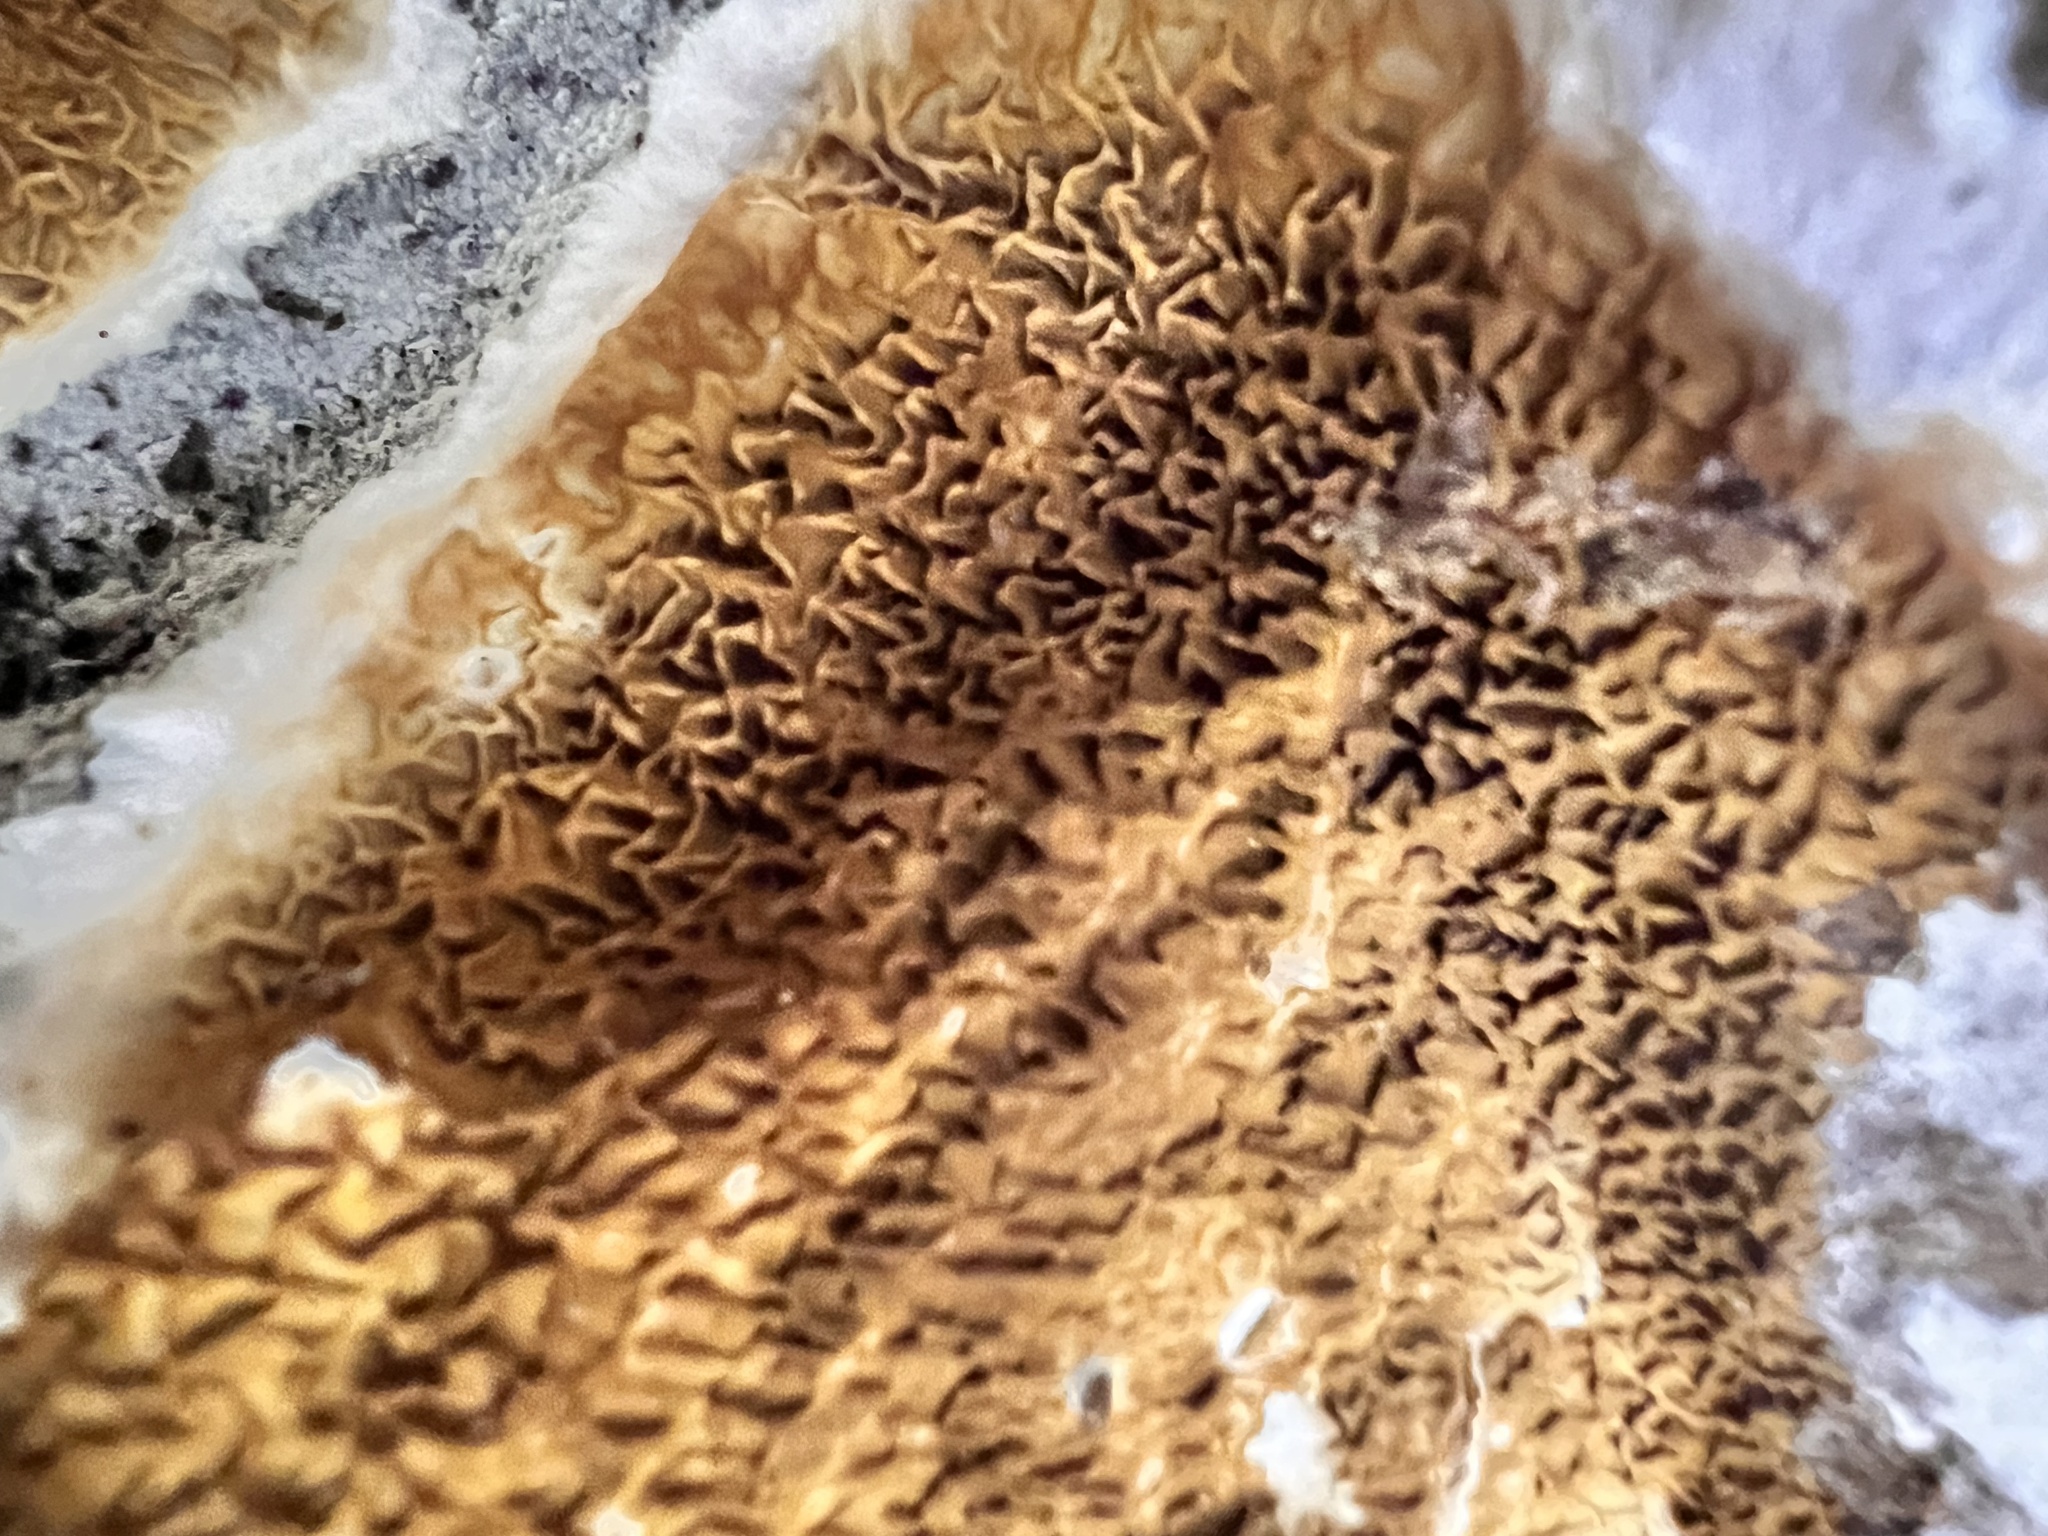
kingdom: Fungi
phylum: Basidiomycota
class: Agaricomycetes
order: Boletales
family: Serpulaceae
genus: Serpula
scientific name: Serpula himantioides
